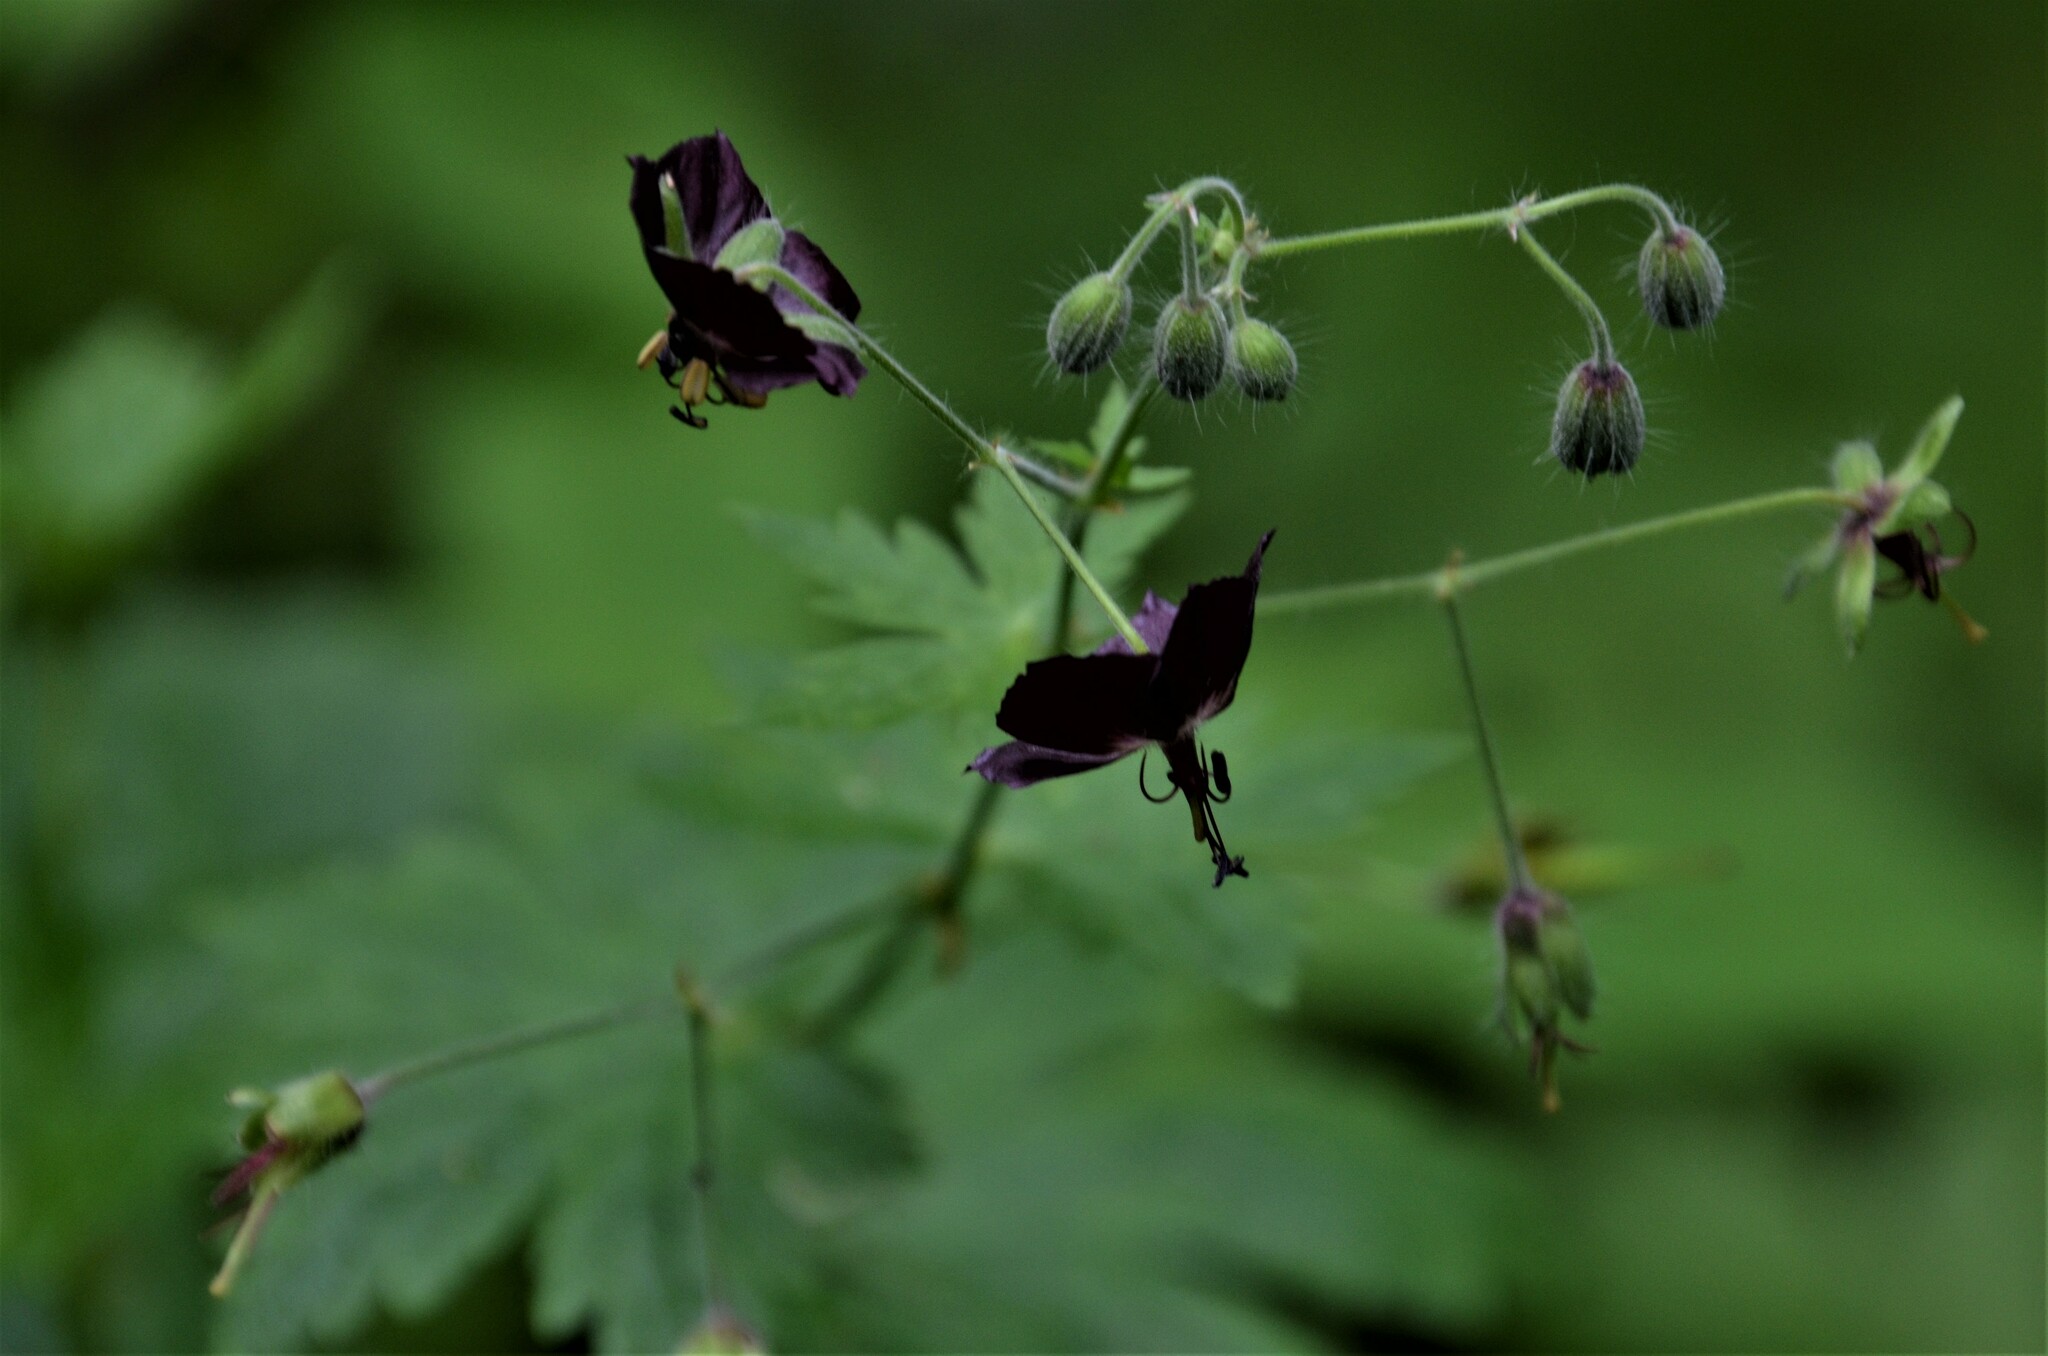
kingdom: Plantae
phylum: Tracheophyta
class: Magnoliopsida
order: Geraniales
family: Geraniaceae
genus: Geranium
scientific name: Geranium phaeum
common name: Dusky crane's-bill
